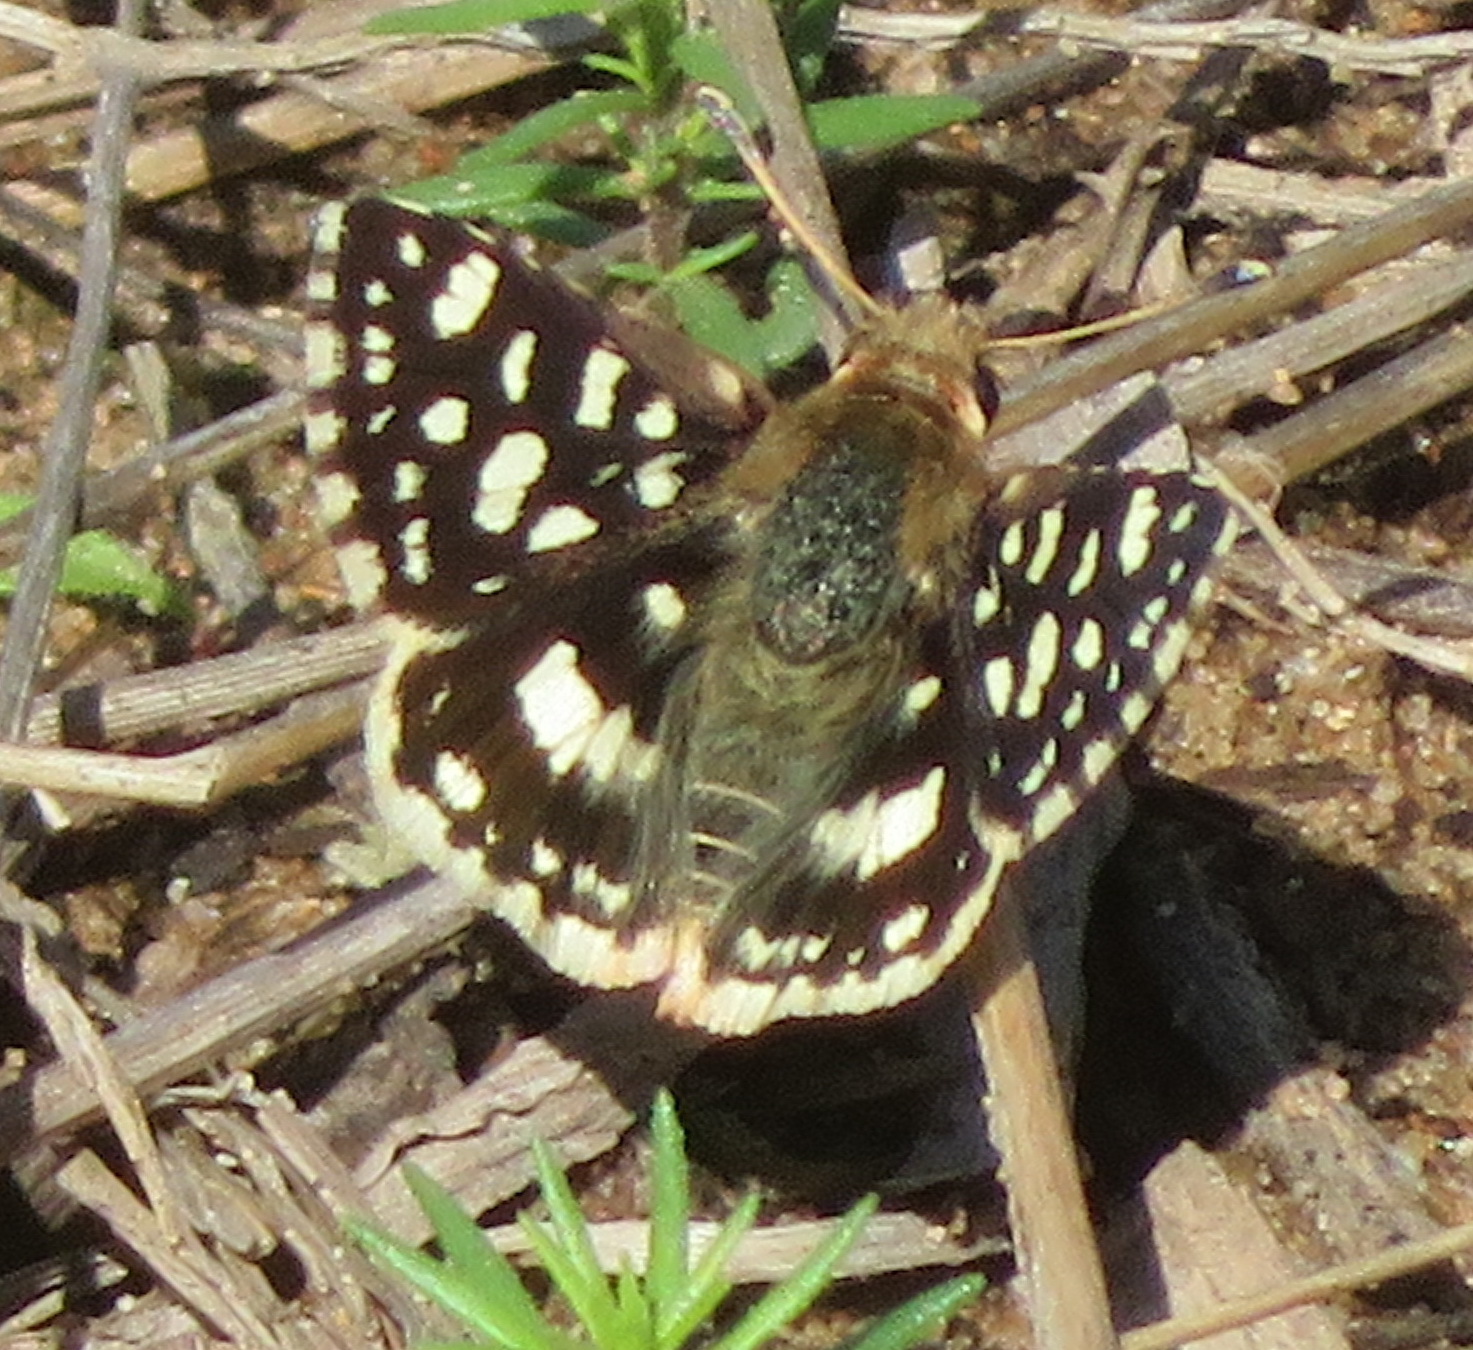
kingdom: Animalia
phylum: Arthropoda
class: Insecta
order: Lepidoptera
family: Hesperiidae
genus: Spialia
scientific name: Spialia spio
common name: Mountain sandman
